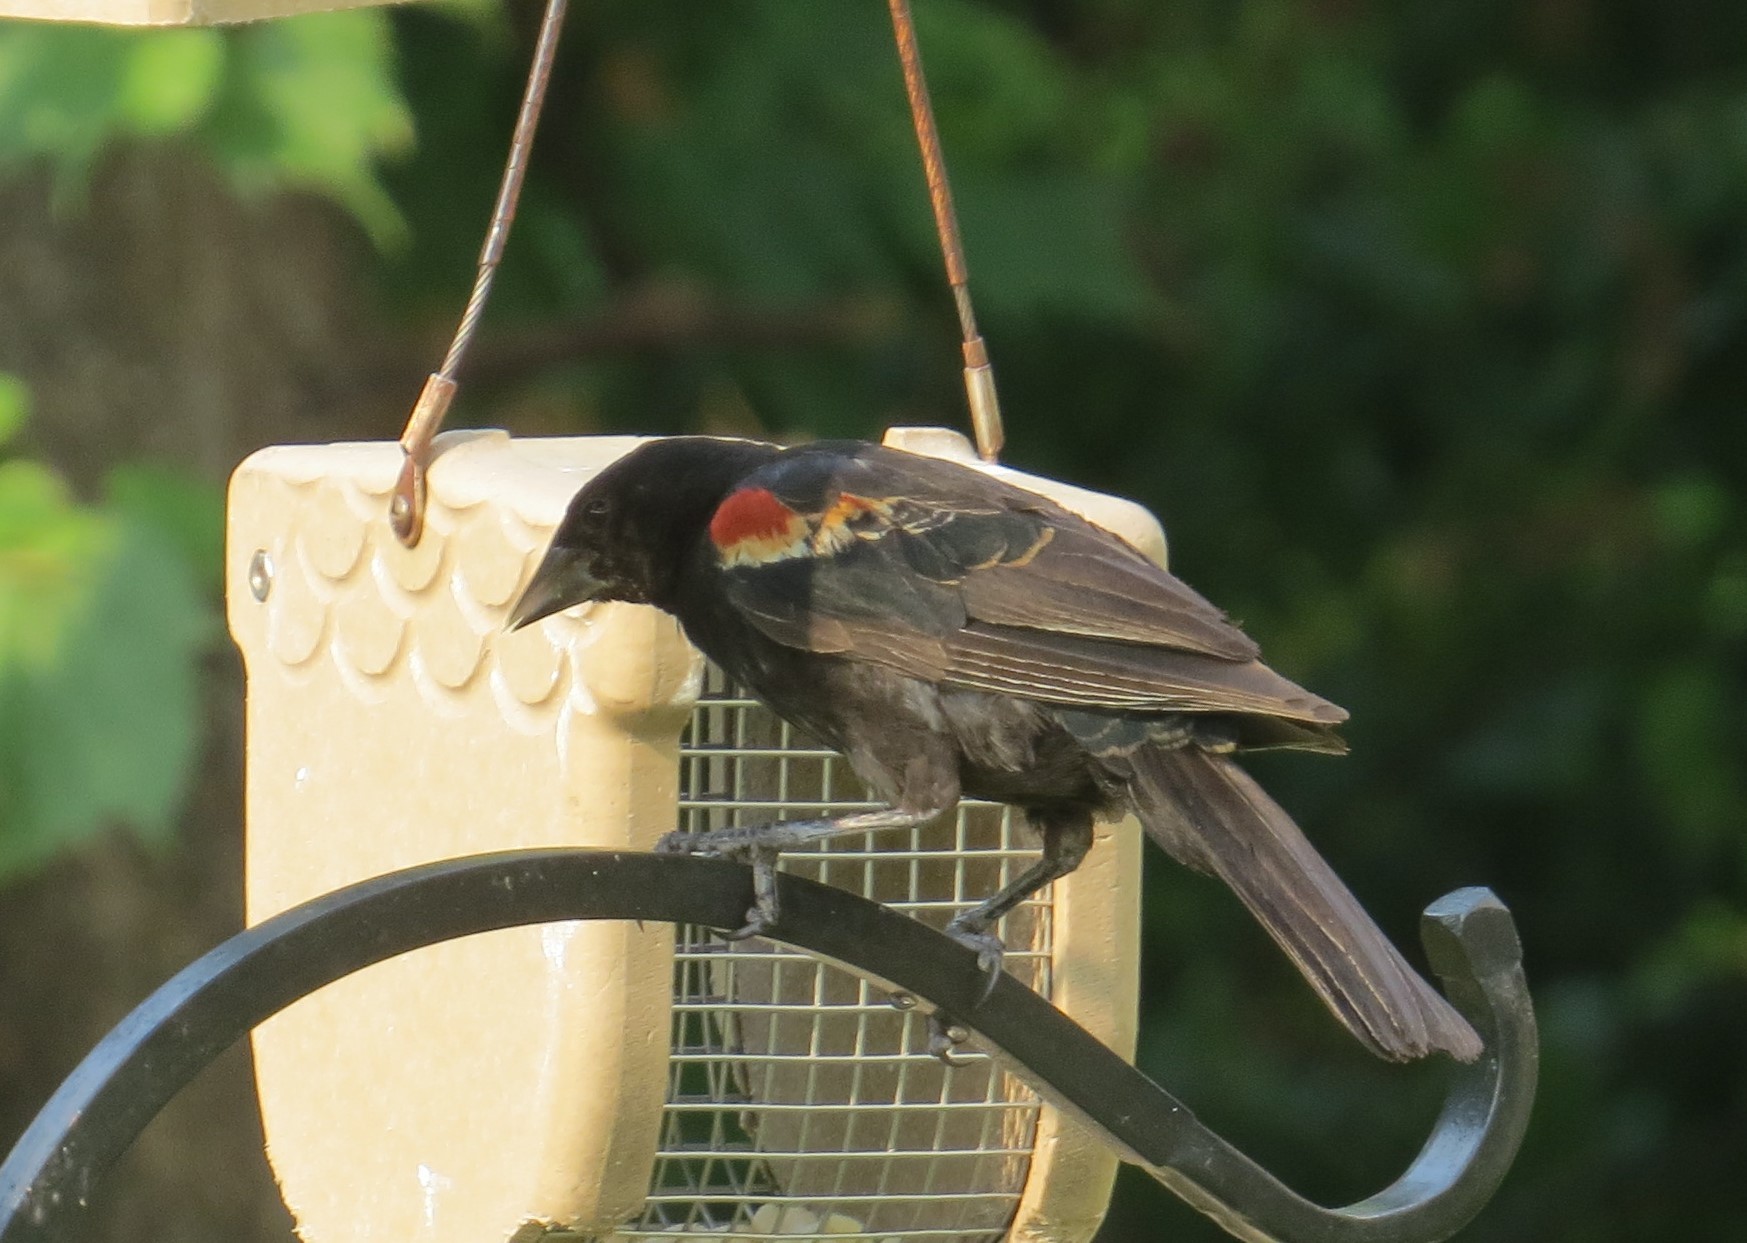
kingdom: Animalia
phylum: Chordata
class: Aves
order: Passeriformes
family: Icteridae
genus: Agelaius
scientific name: Agelaius phoeniceus
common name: Red-winged blackbird
